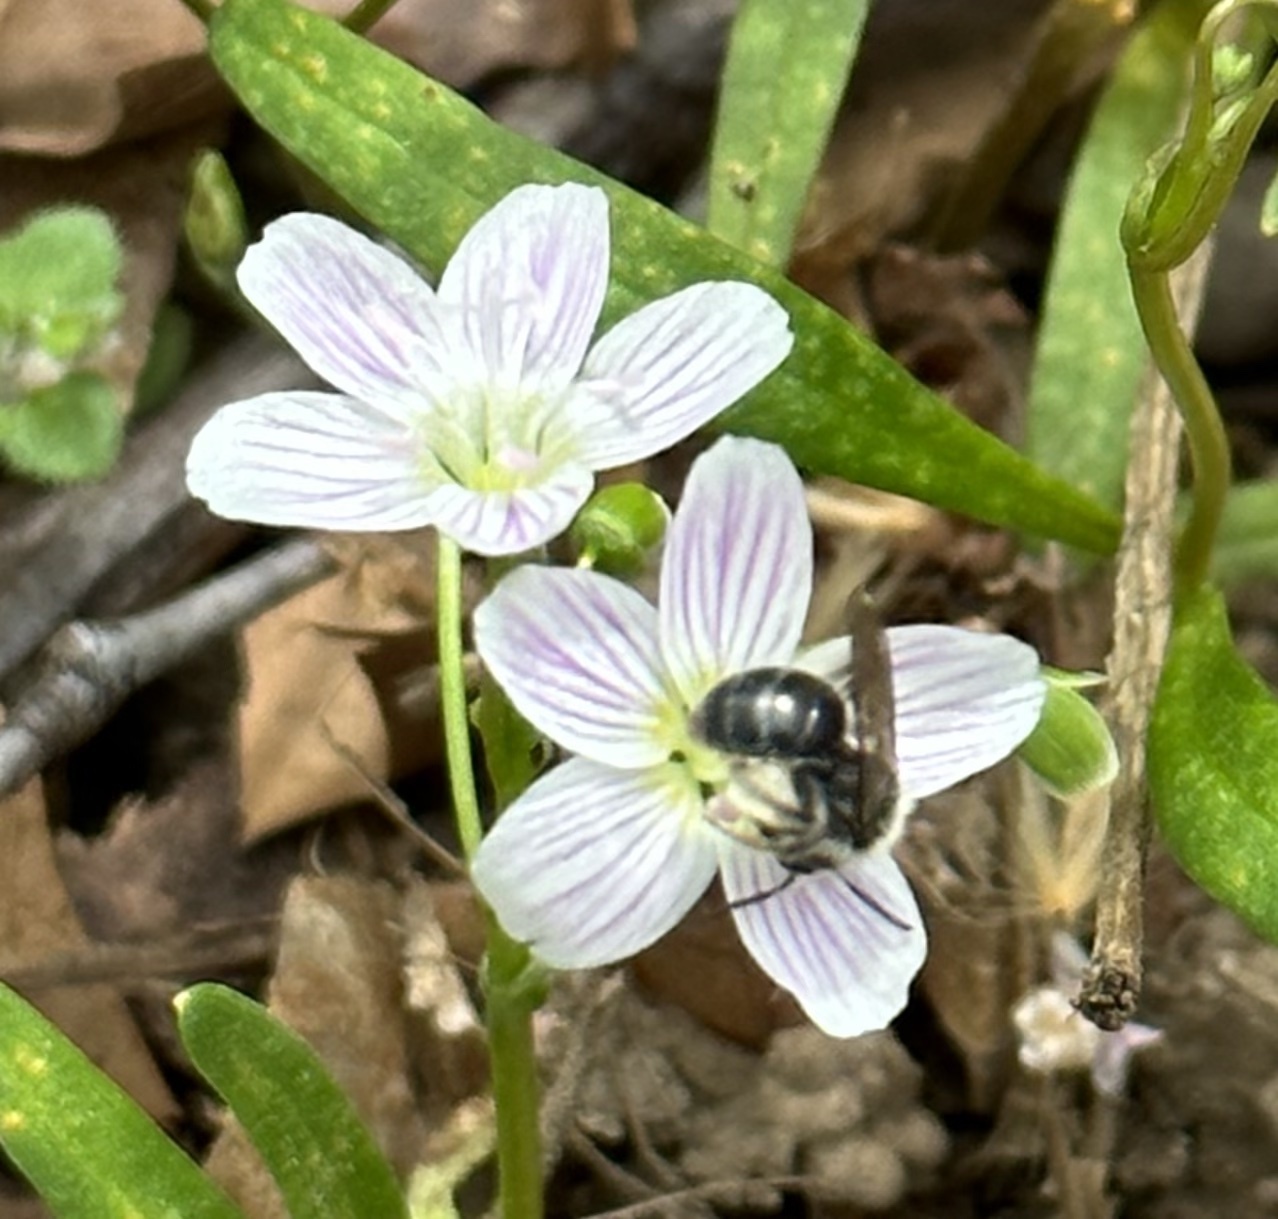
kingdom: Animalia
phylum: Arthropoda
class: Insecta
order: Hymenoptera
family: Andrenidae
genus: Andrena
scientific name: Andrena erigeniae
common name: Spring beauty miner
